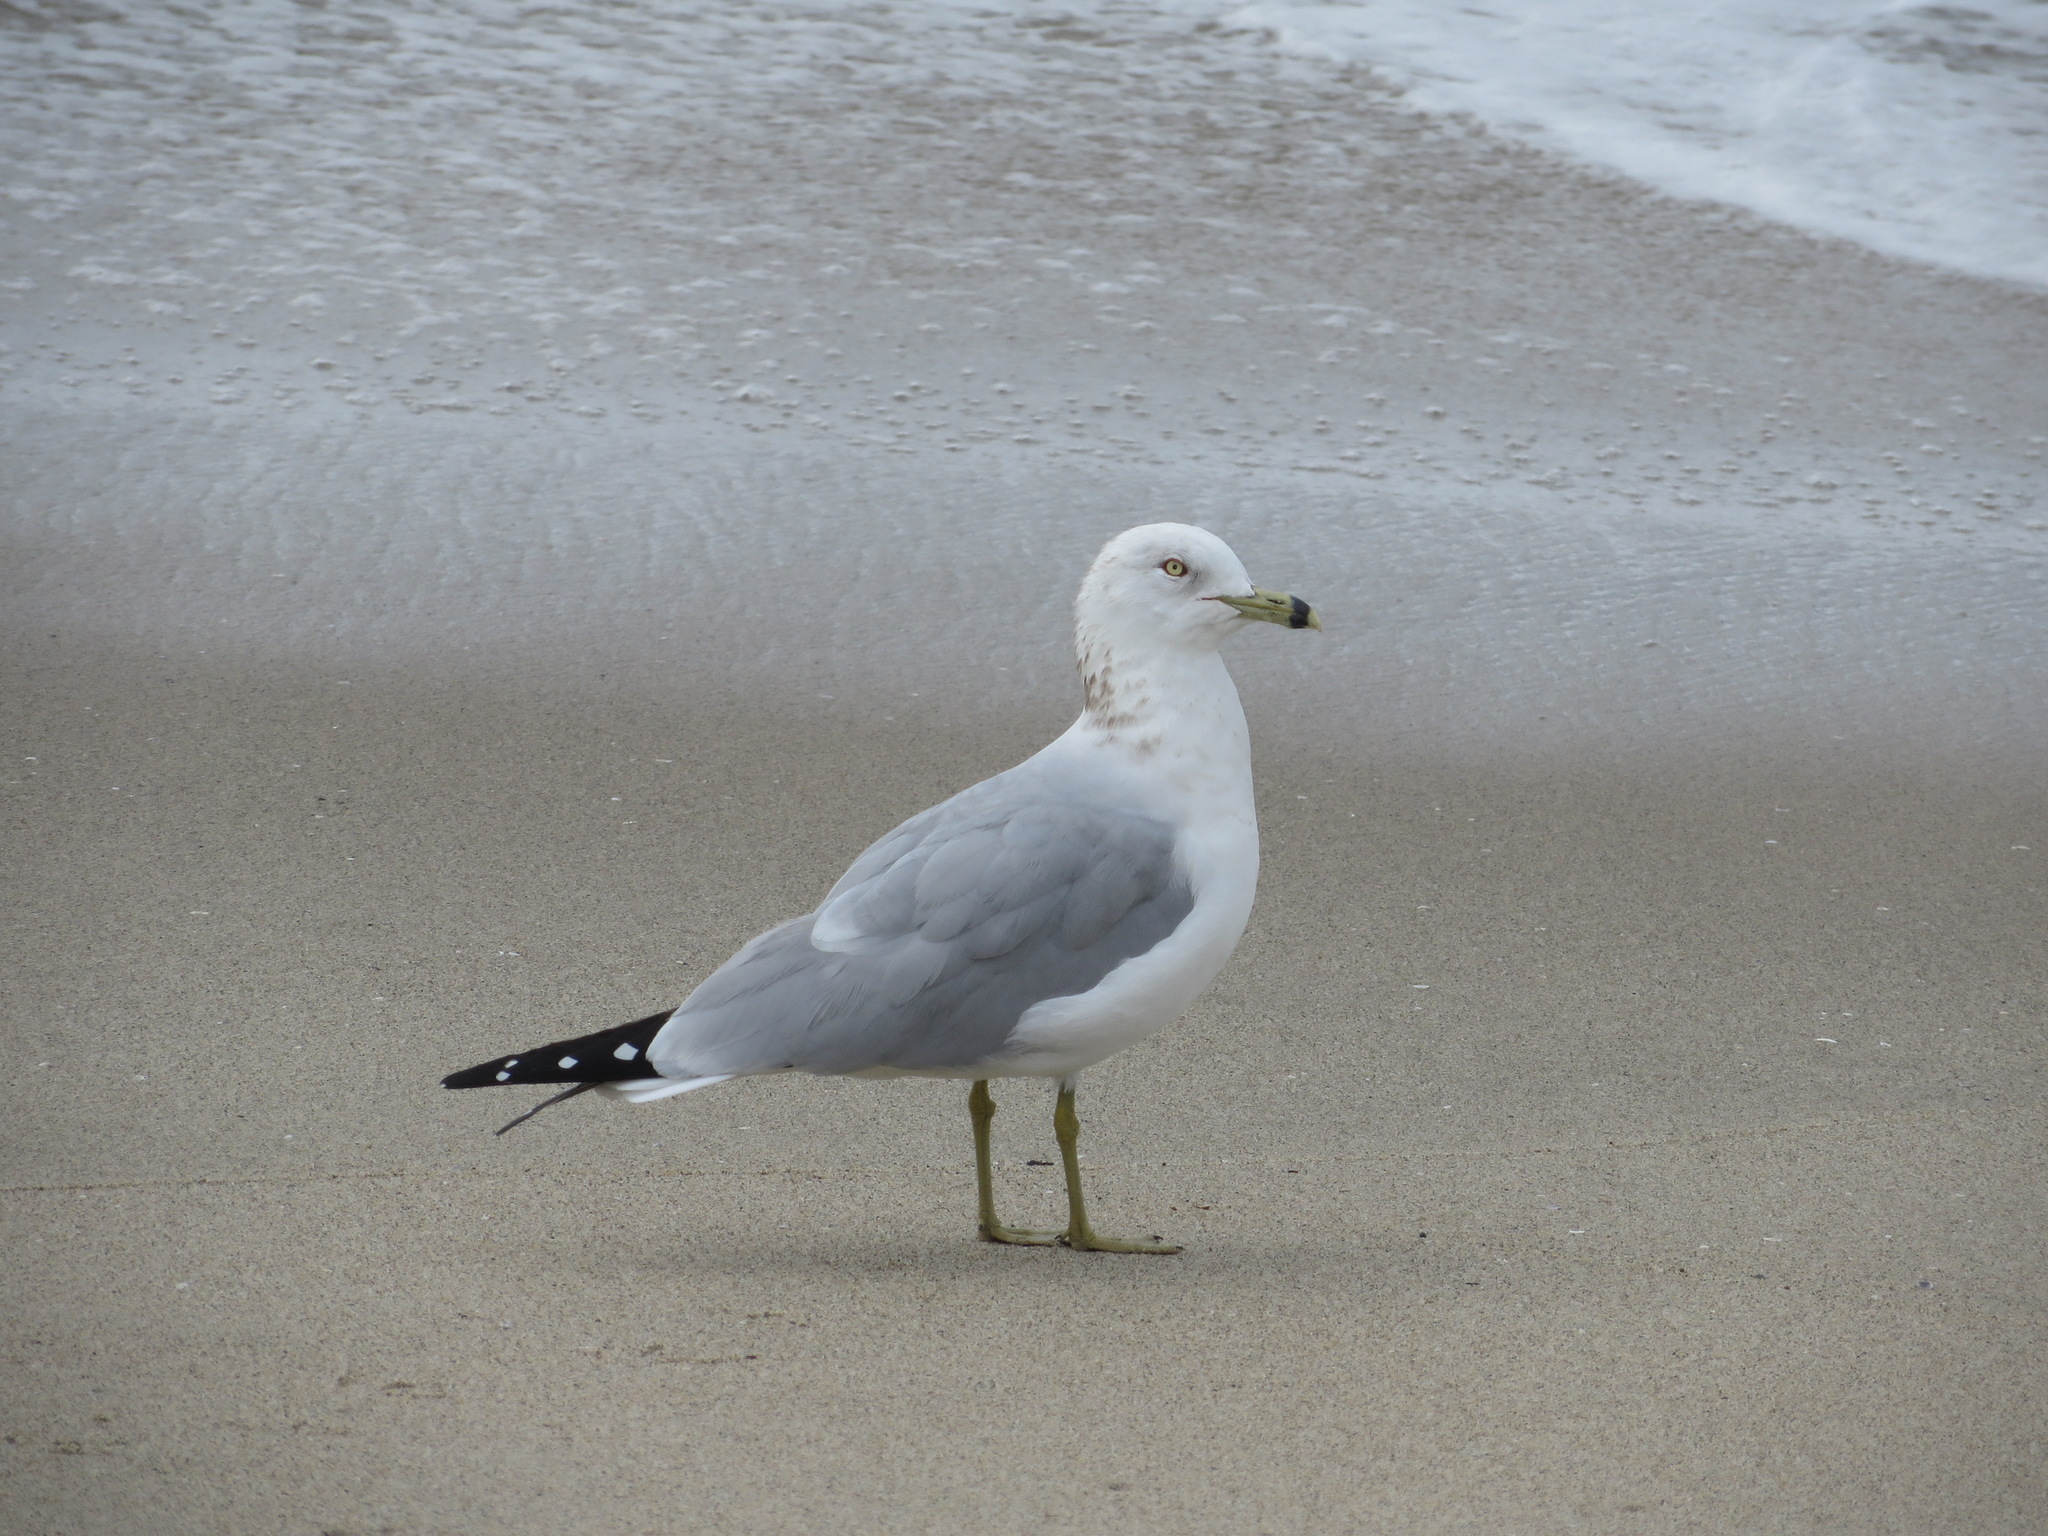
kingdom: Animalia
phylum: Chordata
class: Aves
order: Charadriiformes
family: Laridae
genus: Larus
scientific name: Larus delawarensis
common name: Ring-billed gull
